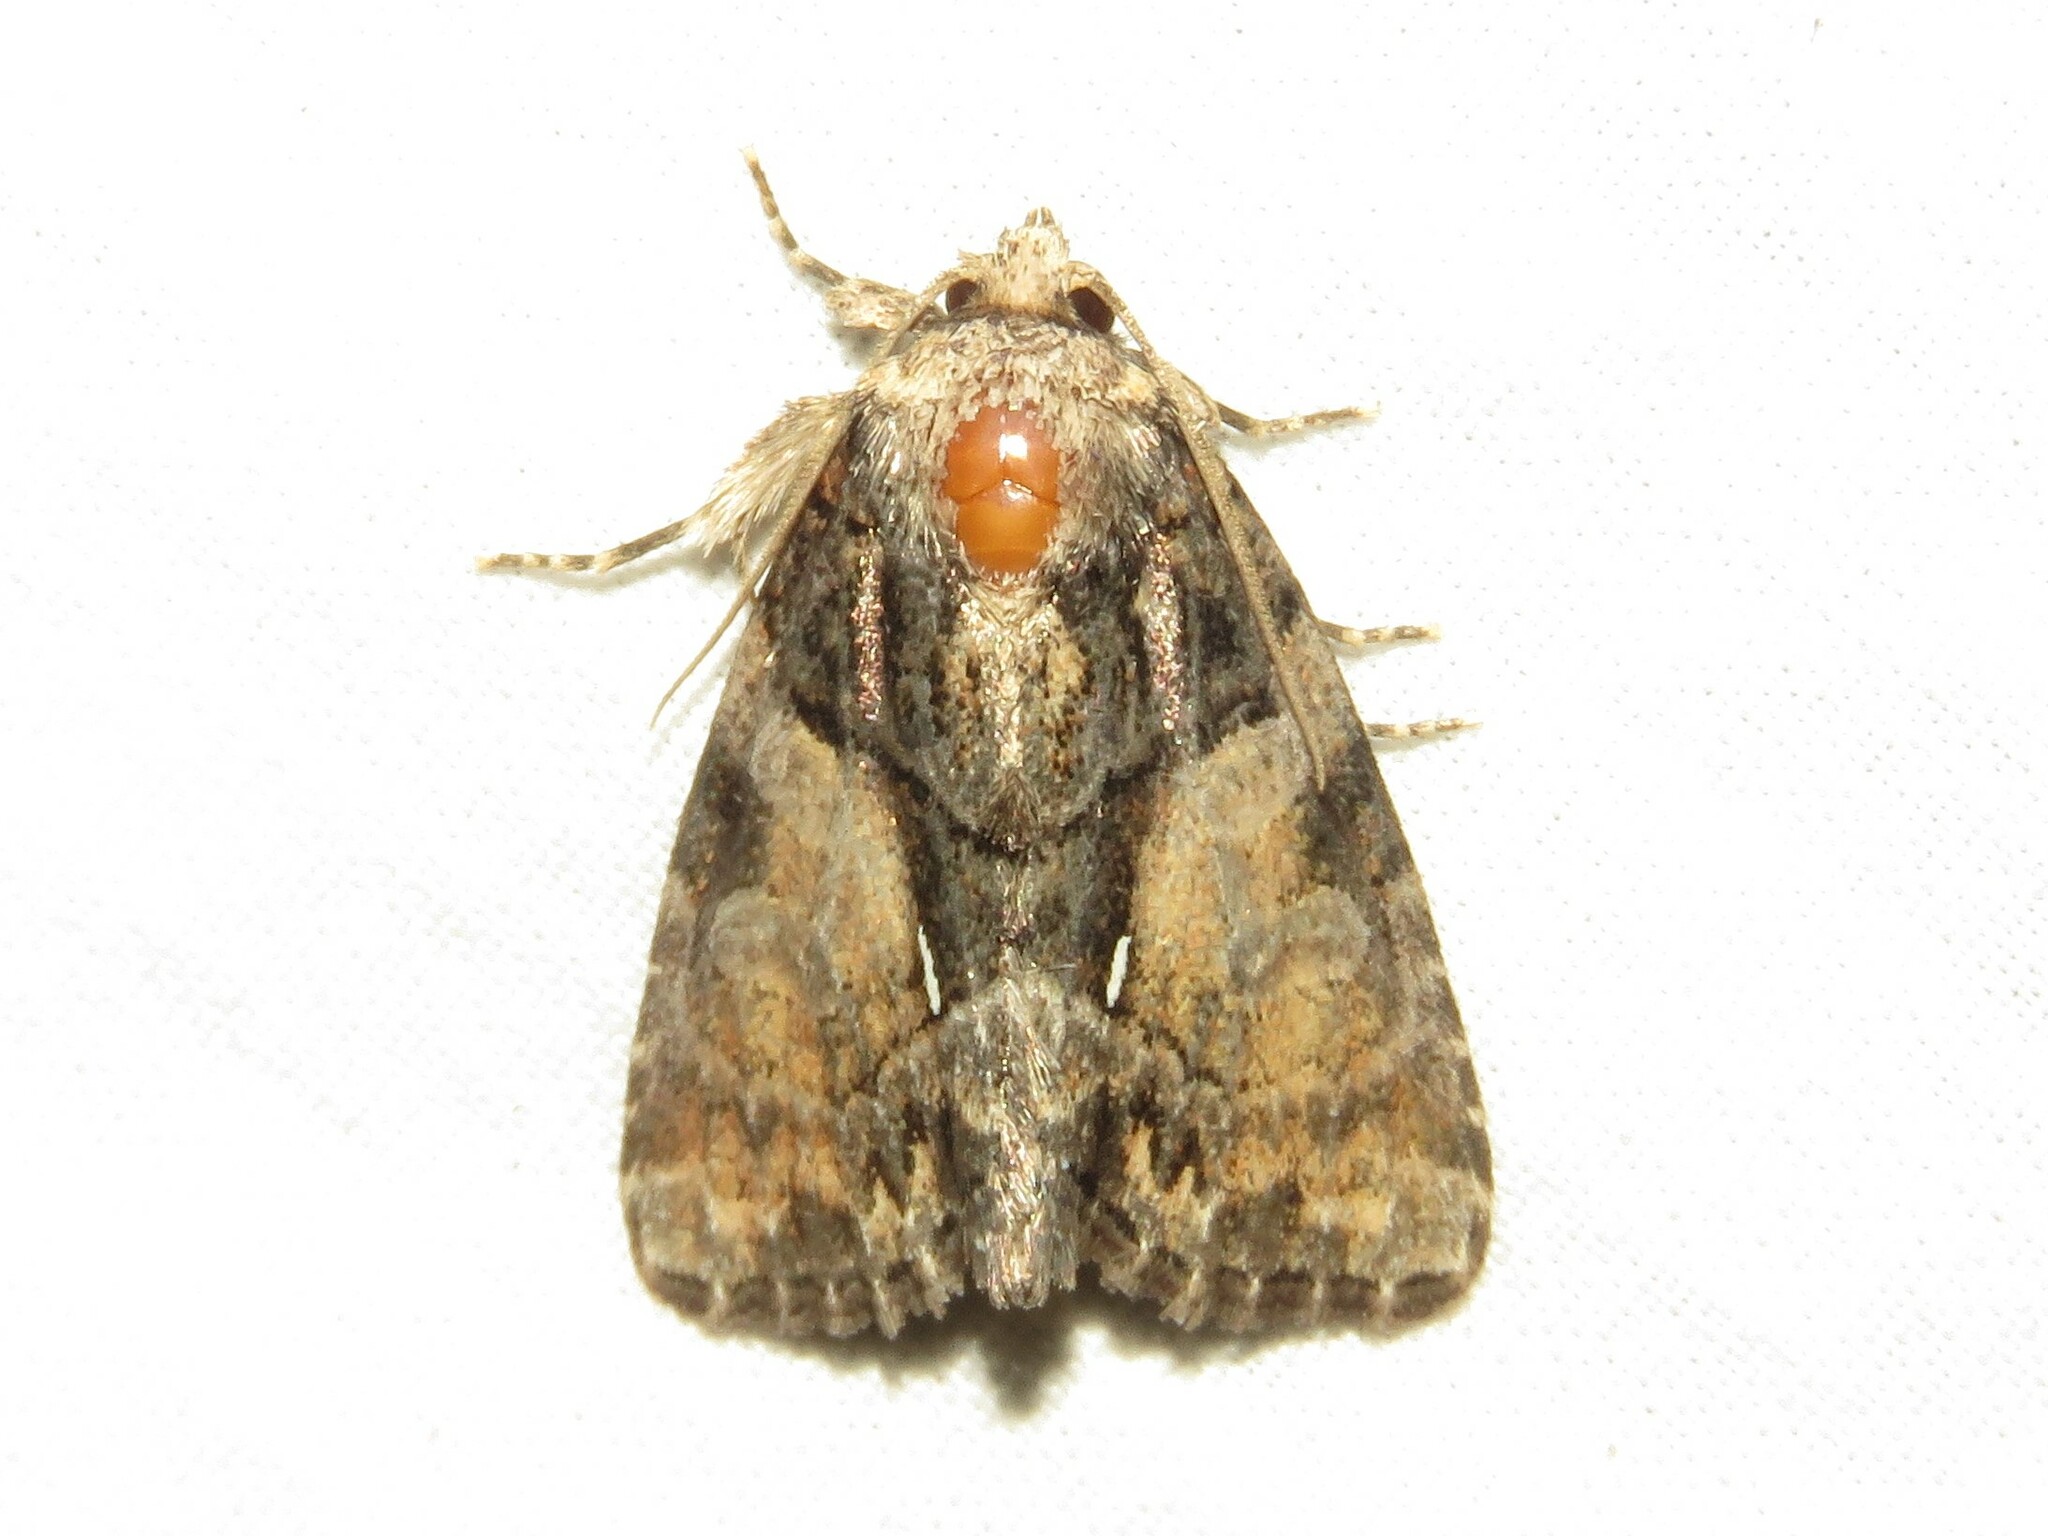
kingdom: Animalia
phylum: Arthropoda
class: Insecta
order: Lepidoptera
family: Noctuidae
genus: Chytonix
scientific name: Chytonix palliatricula
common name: Cloaked marvel
